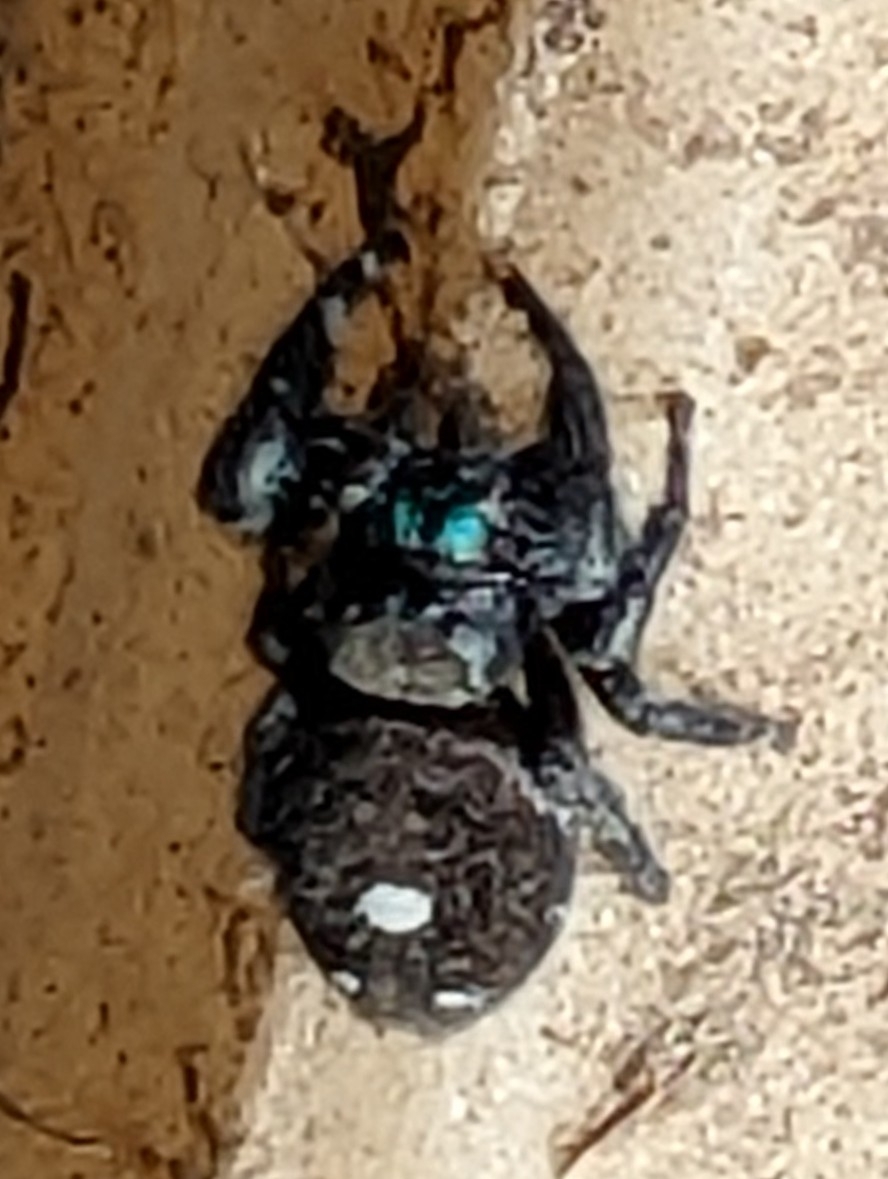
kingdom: Animalia
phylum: Arthropoda
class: Arachnida
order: Araneae
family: Salticidae
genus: Phidippus
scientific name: Phidippus audax
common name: Bold jumper
